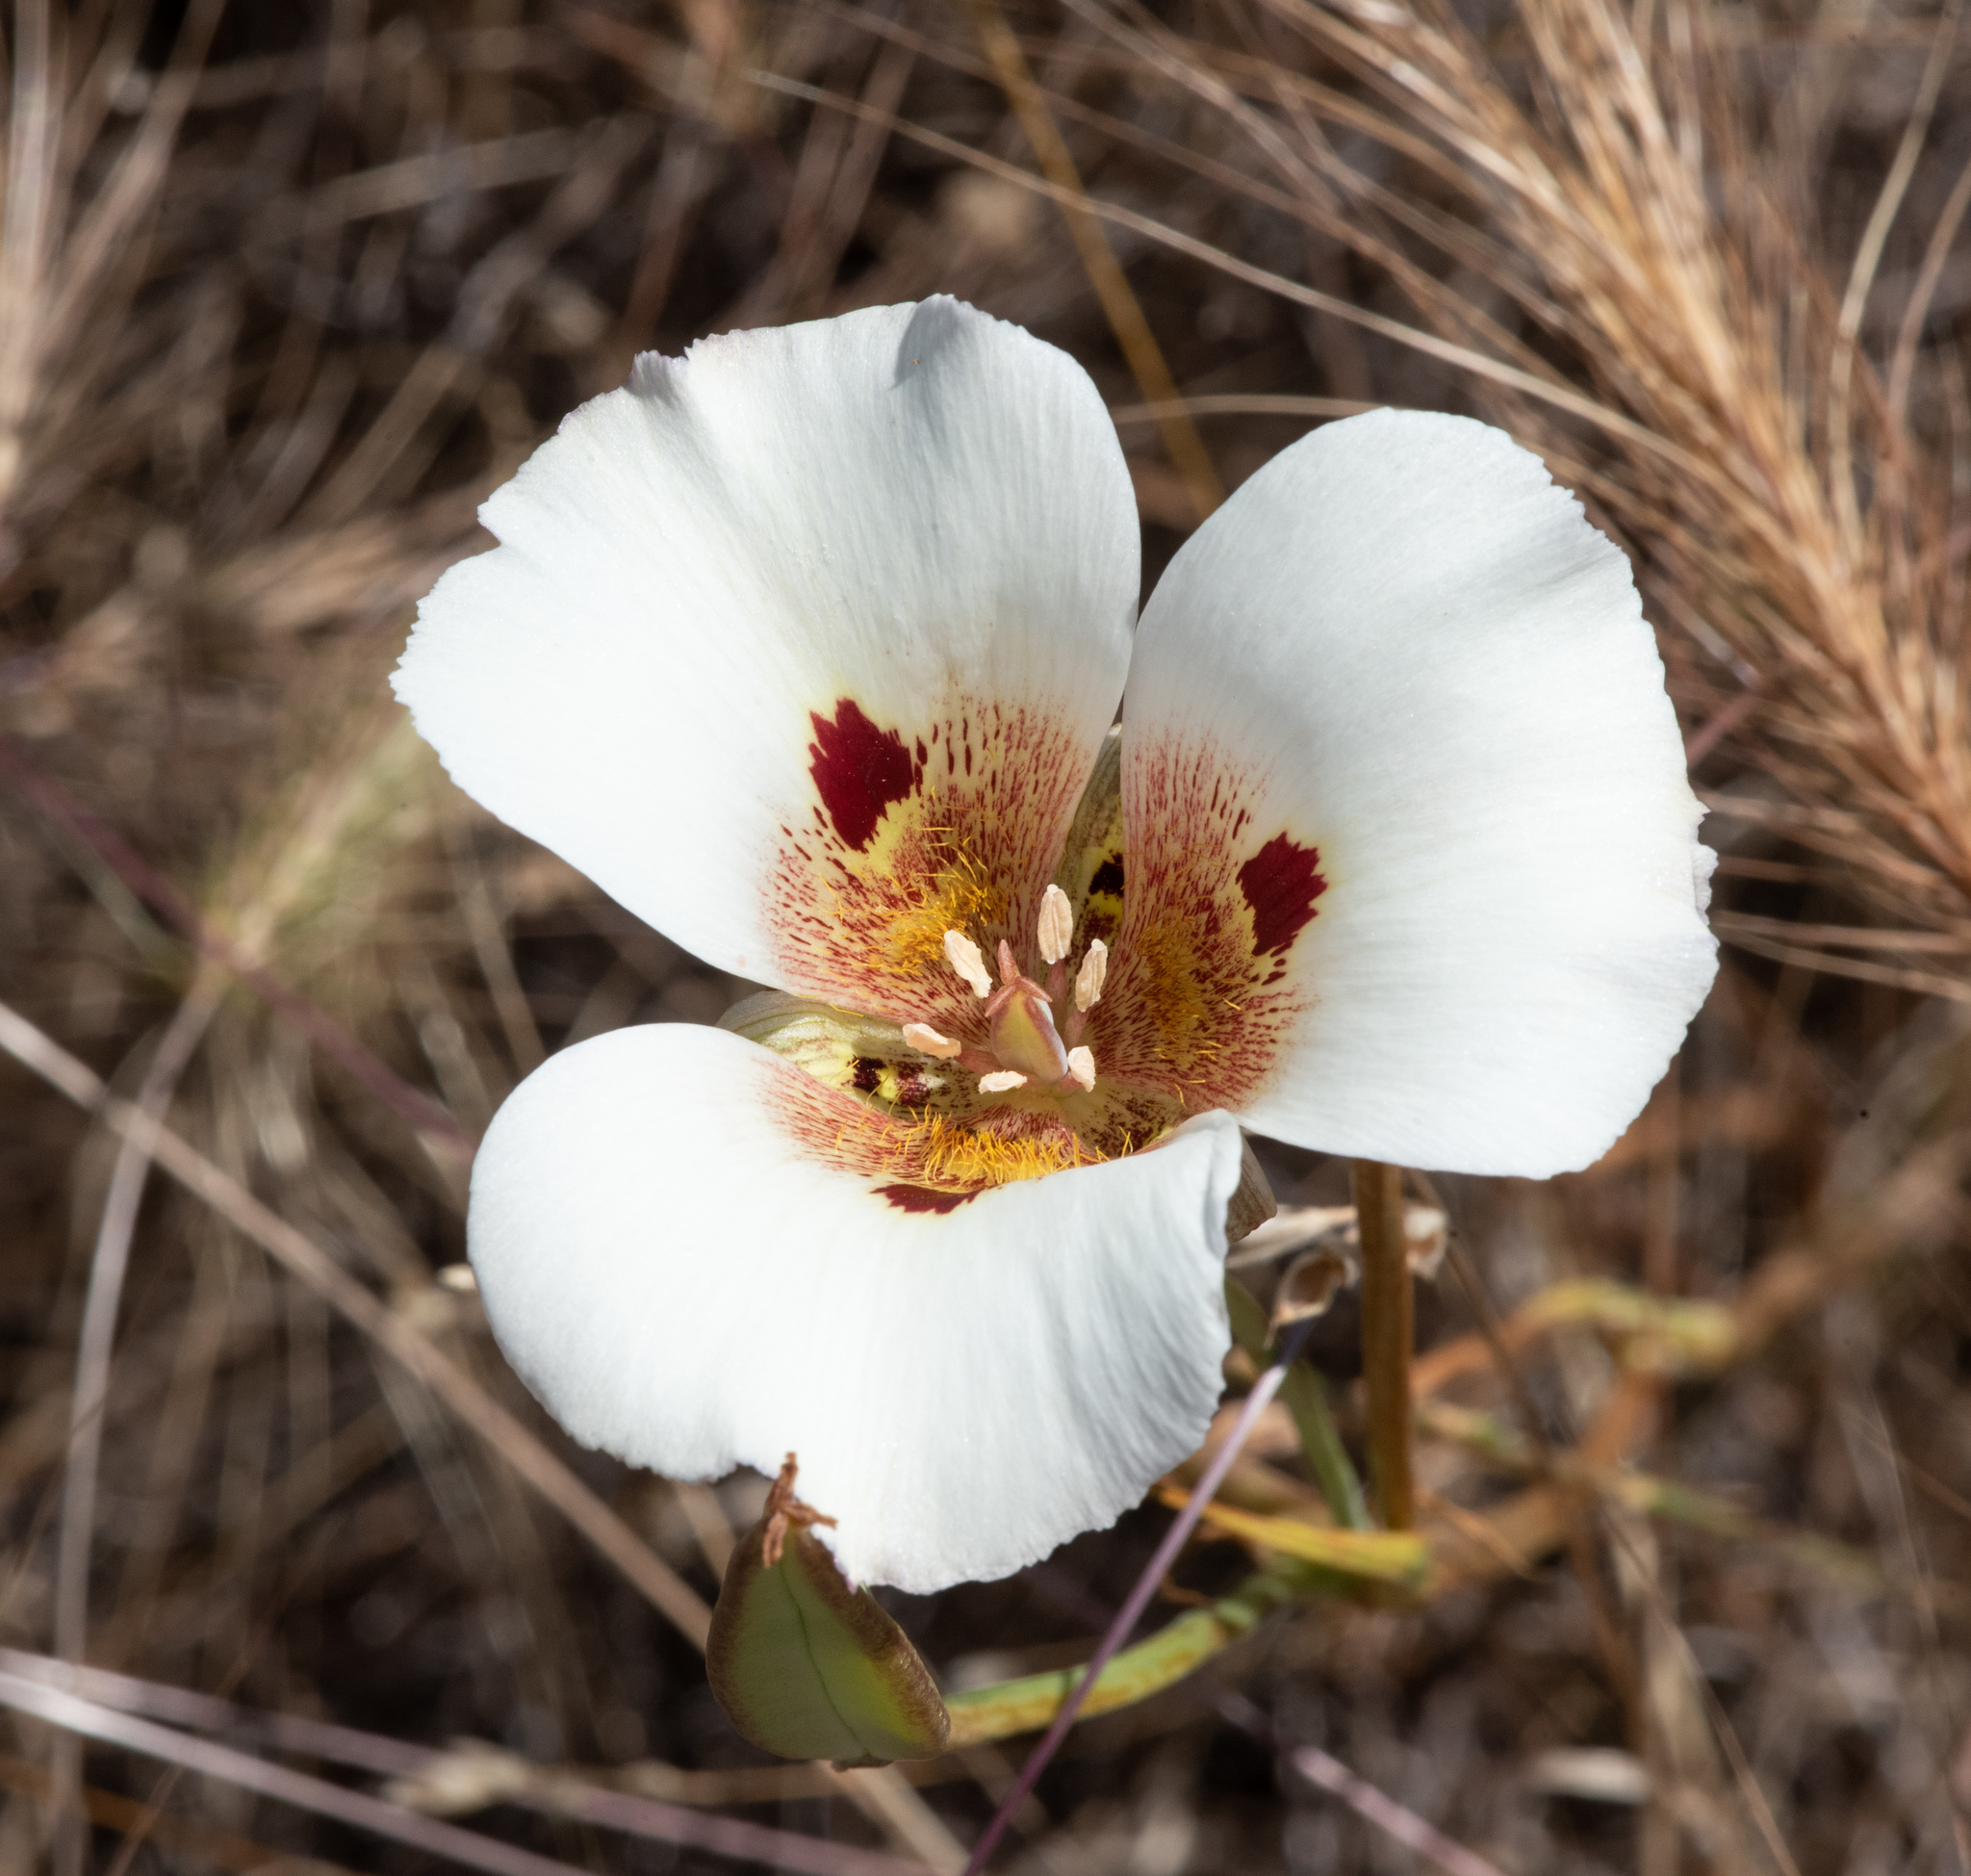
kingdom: Plantae
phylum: Tracheophyta
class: Liliopsida
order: Liliales
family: Liliaceae
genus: Calochortus
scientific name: Calochortus vestae
